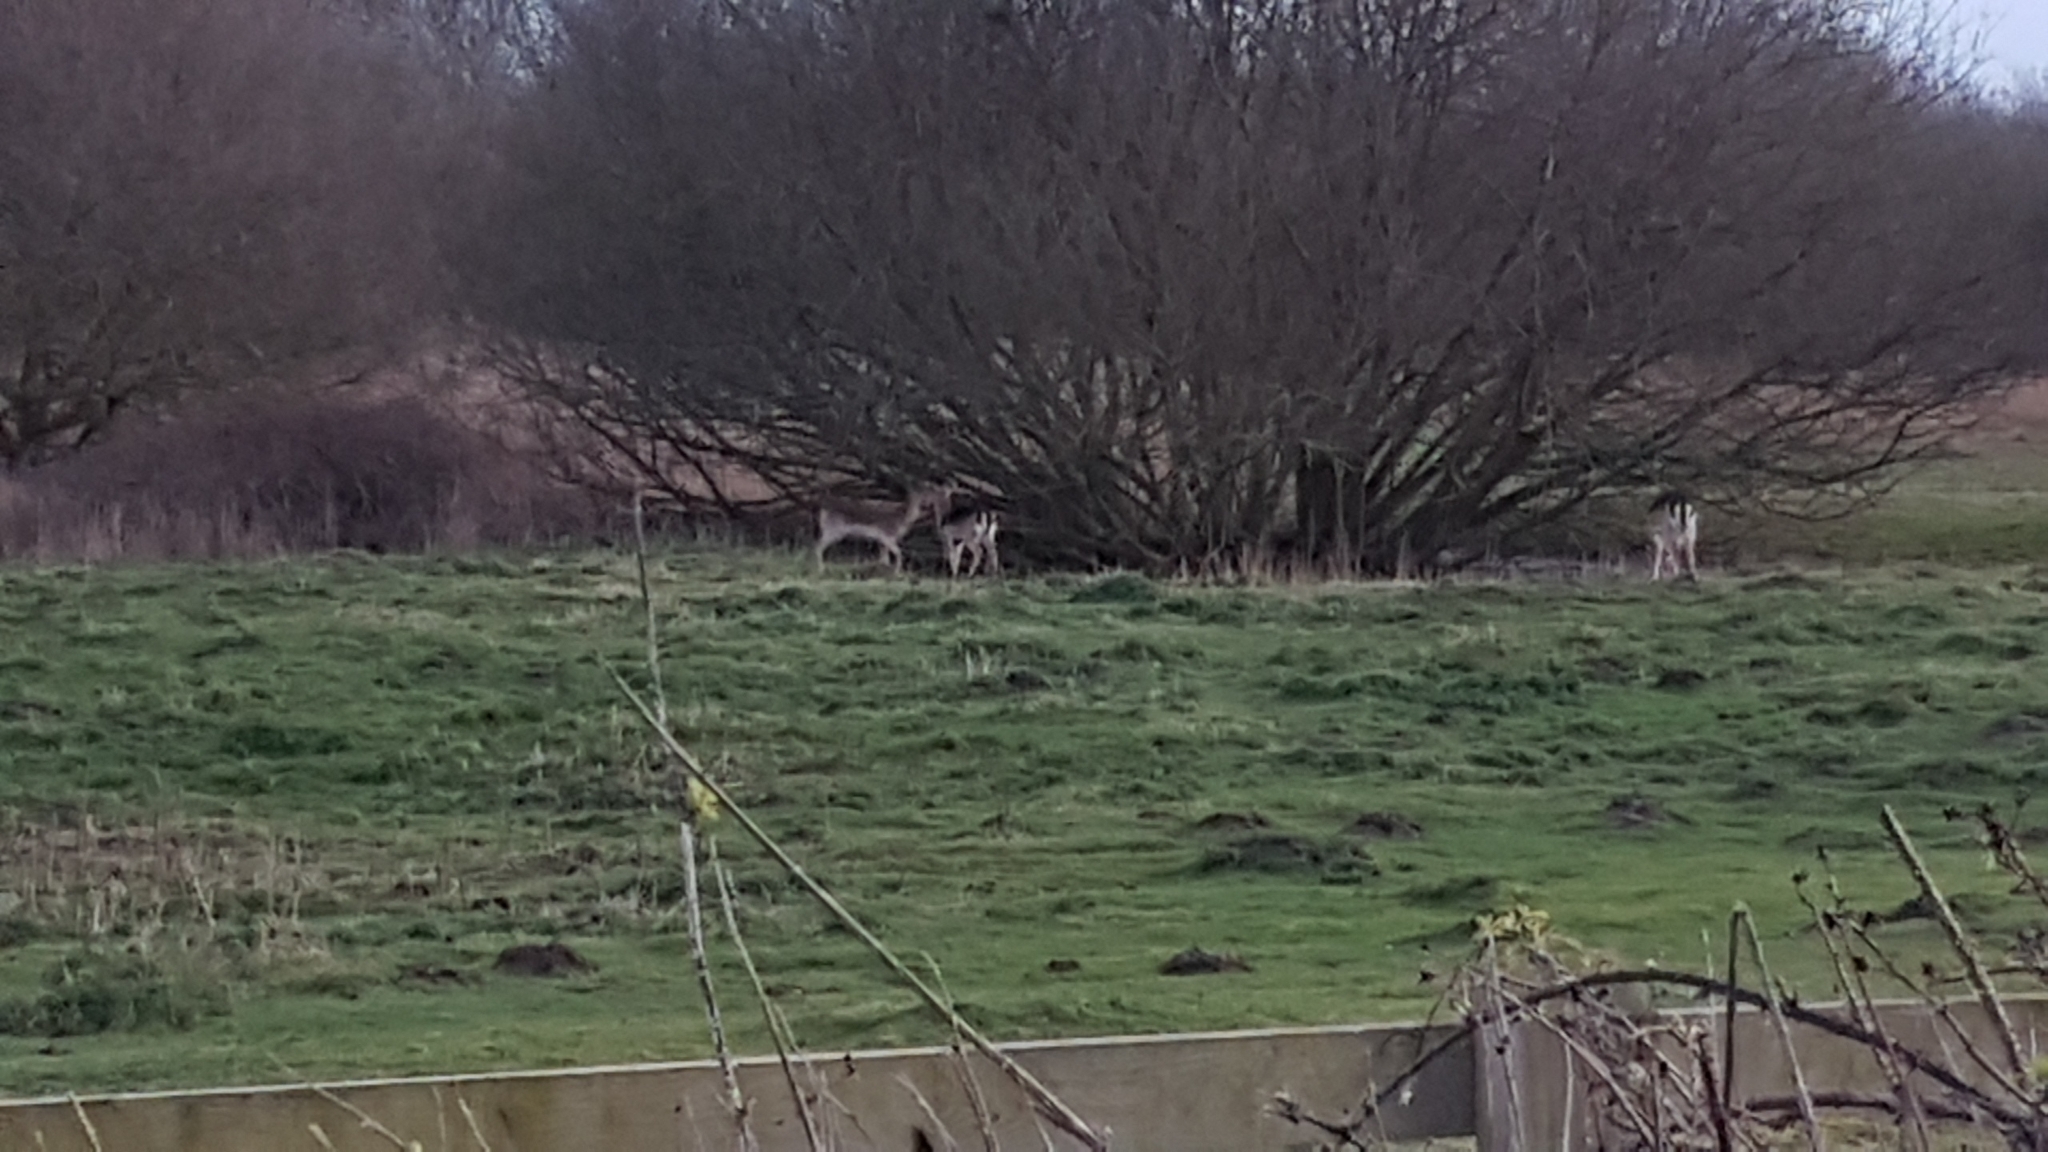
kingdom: Animalia
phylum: Chordata
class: Mammalia
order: Artiodactyla
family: Cervidae
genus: Dama
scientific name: Dama dama
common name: Fallow deer
